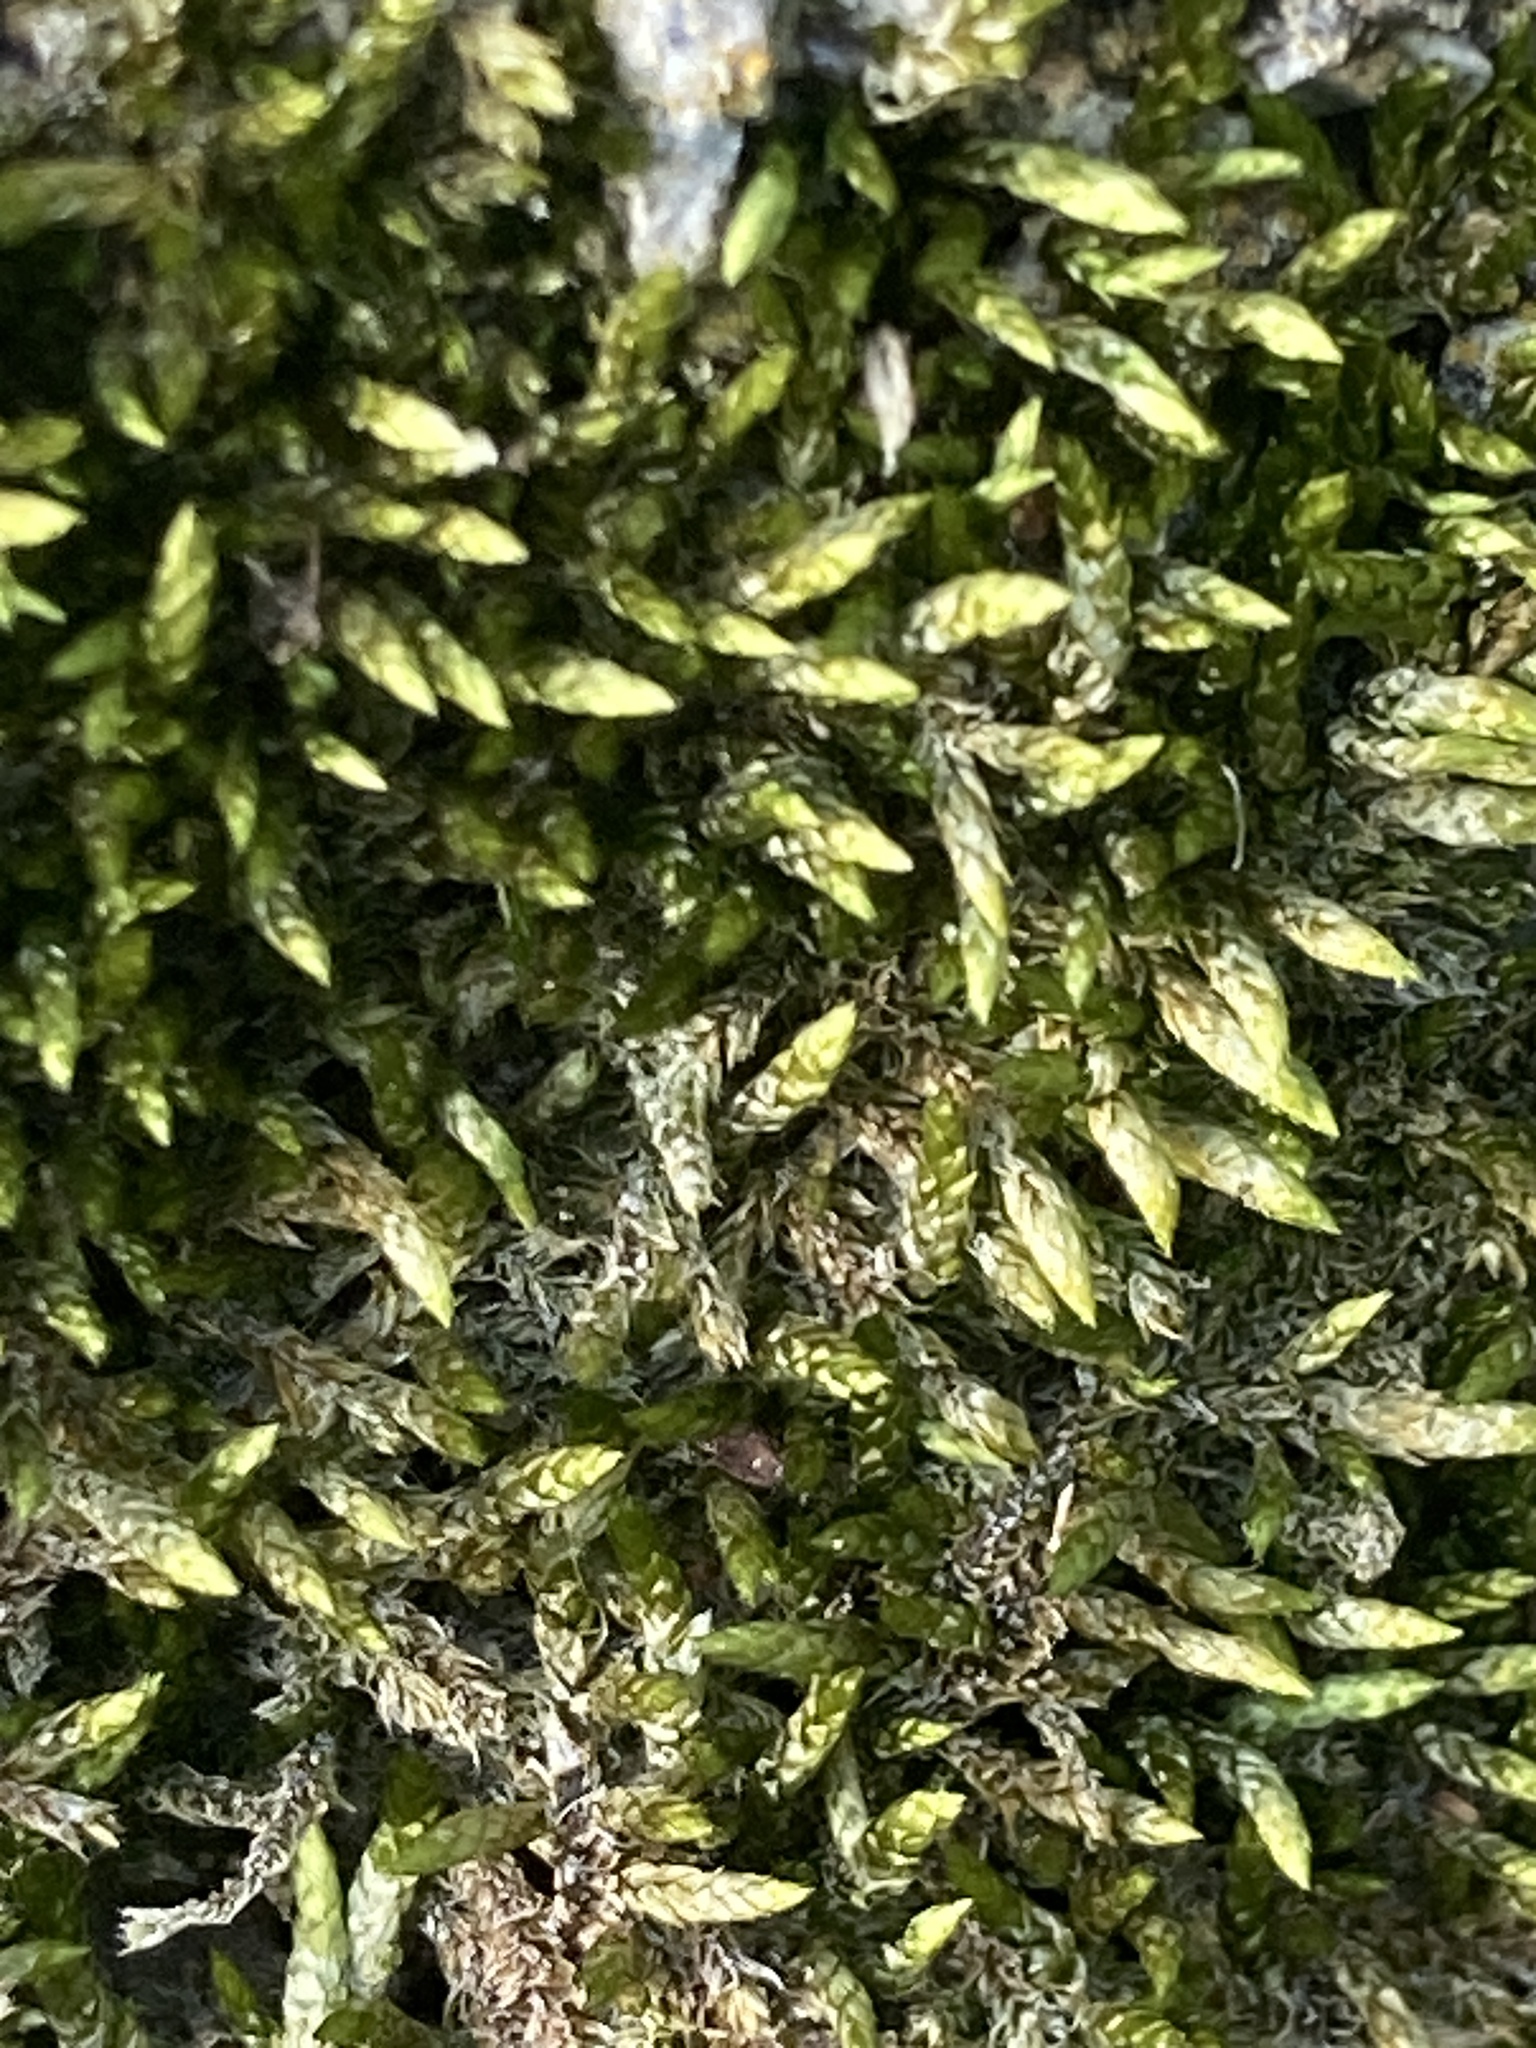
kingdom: Plantae
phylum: Bryophyta
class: Bryopsida
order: Hypnales
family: Entodontaceae
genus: Entodon
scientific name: Entodon seductrix
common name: Round-stemmed entodon moss
